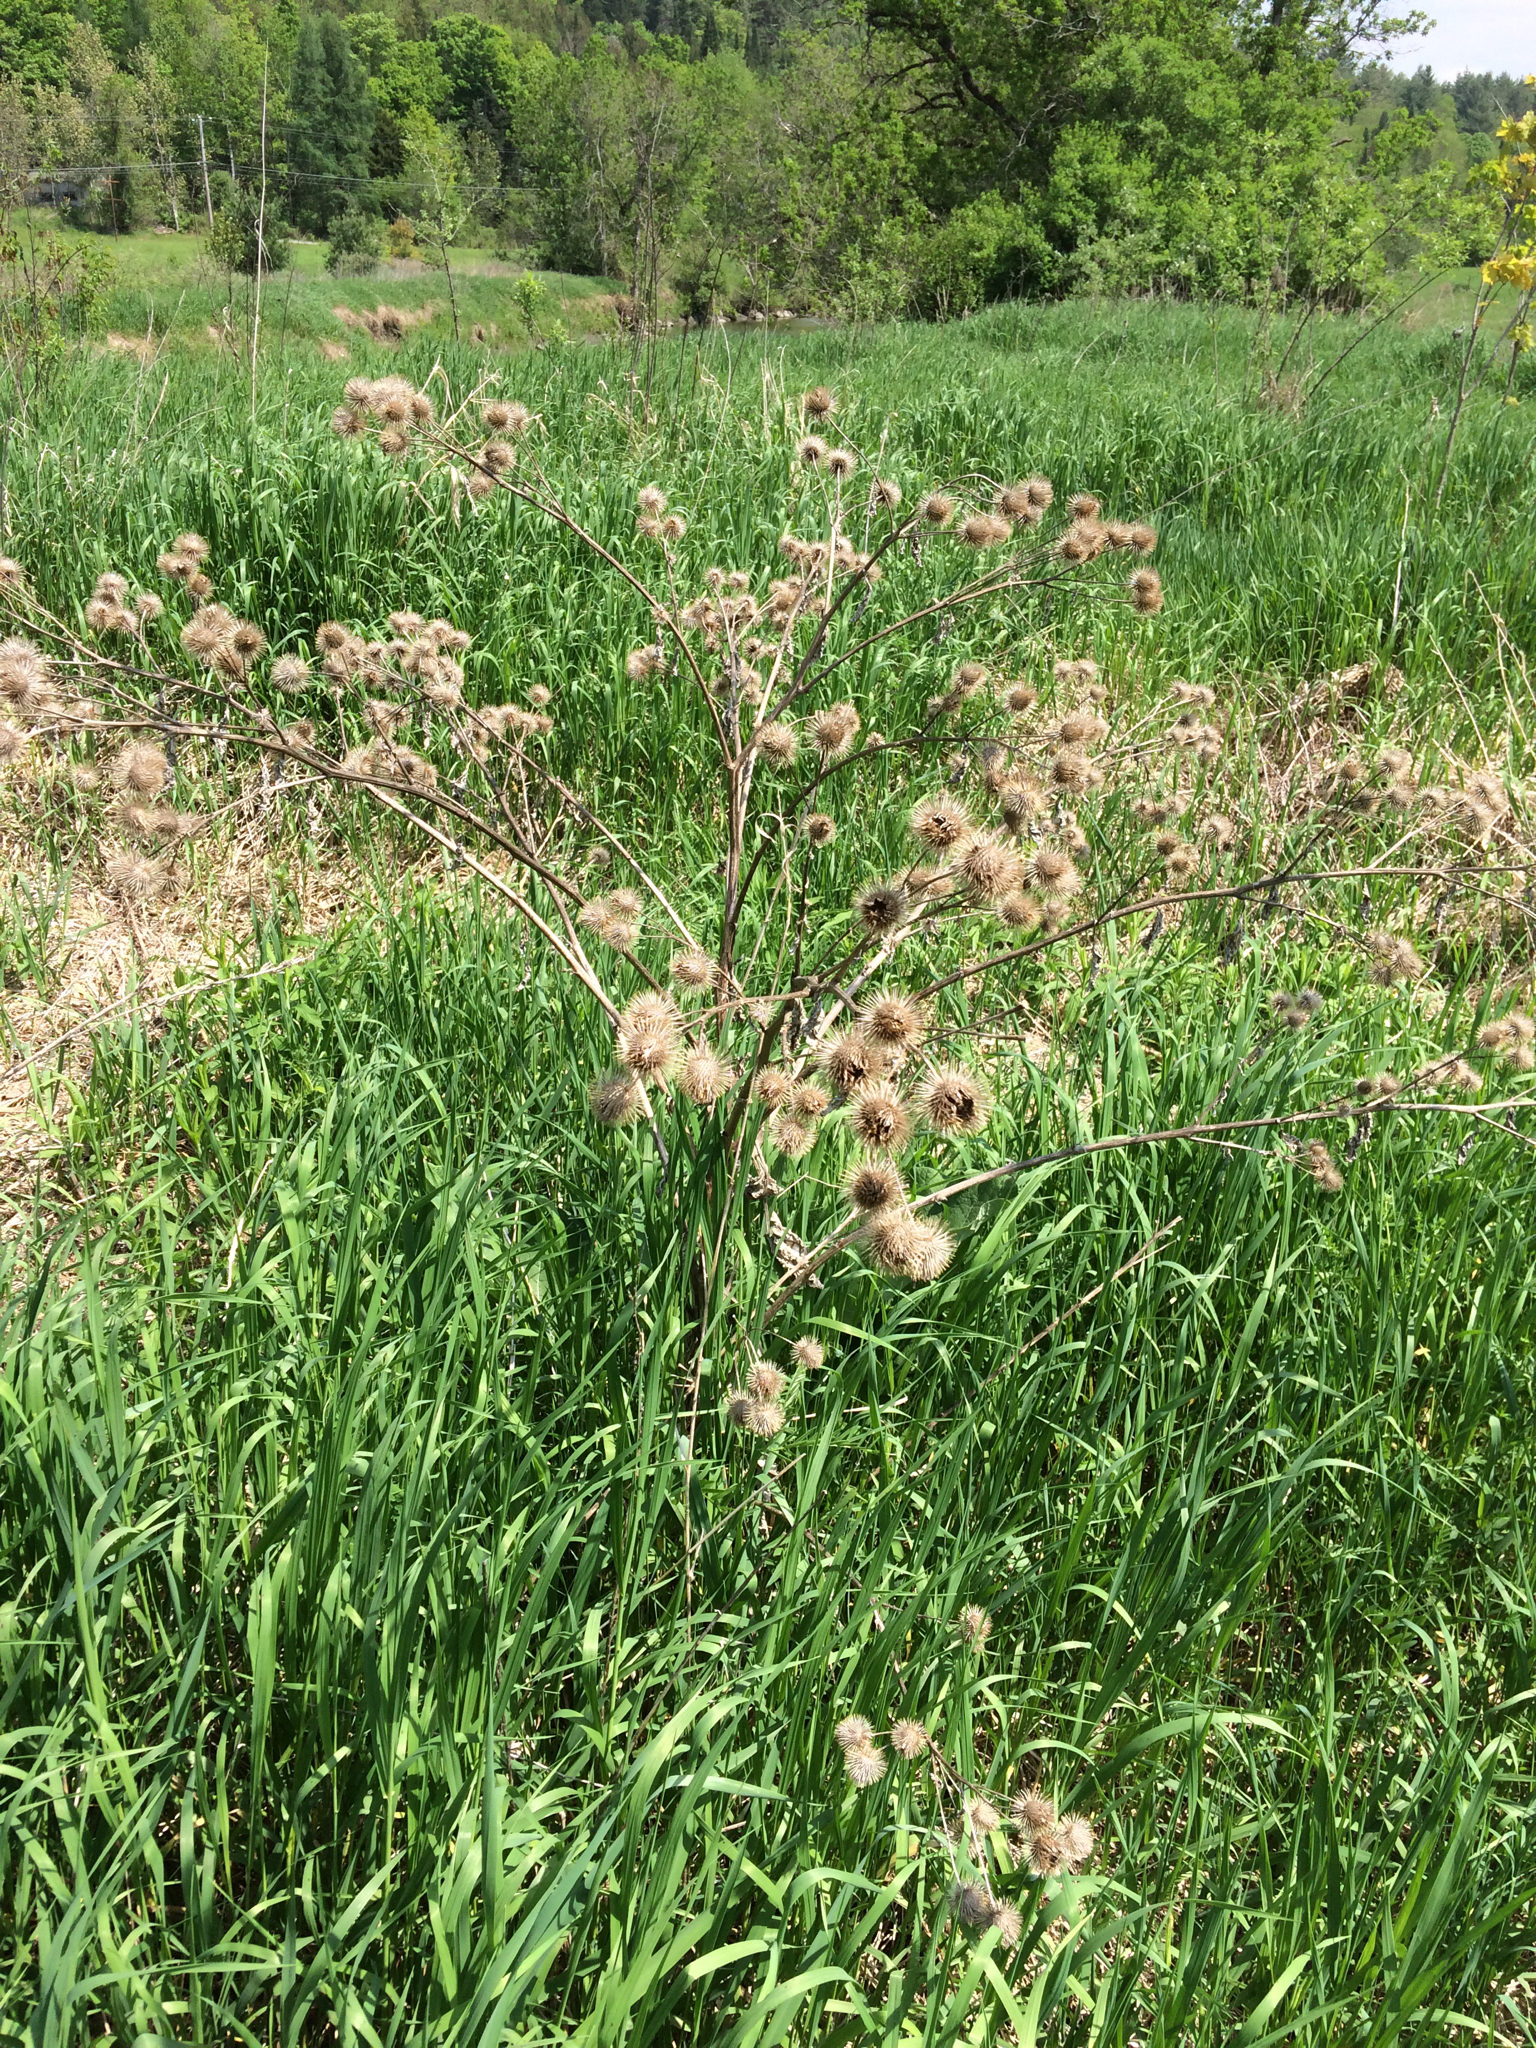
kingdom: Plantae
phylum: Tracheophyta
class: Magnoliopsida
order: Asterales
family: Asteraceae
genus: Arctium
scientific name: Arctium lappa
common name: Greater burdock
